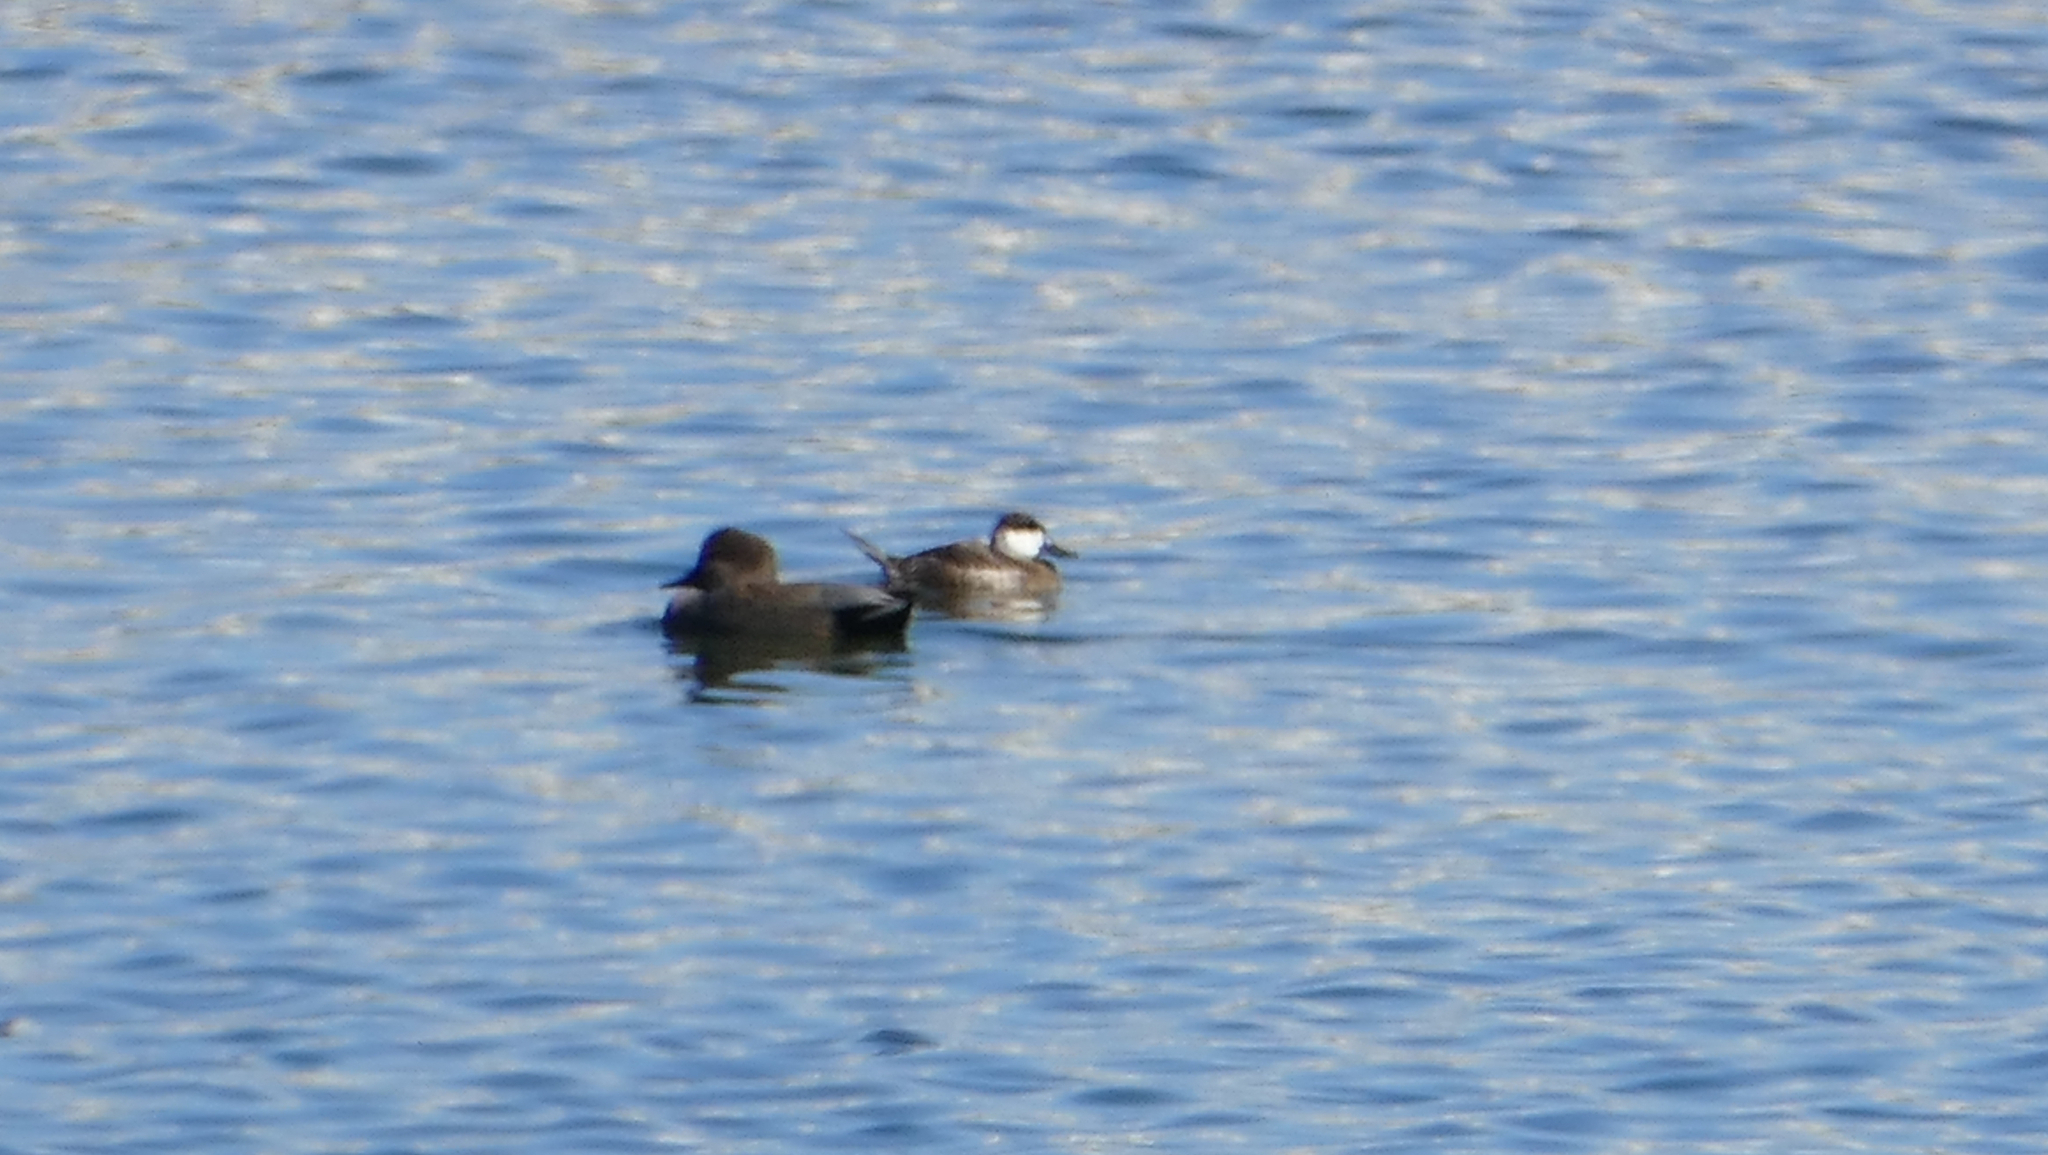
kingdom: Animalia
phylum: Chordata
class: Aves
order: Anseriformes
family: Anatidae
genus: Mareca
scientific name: Mareca strepera
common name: Gadwall
